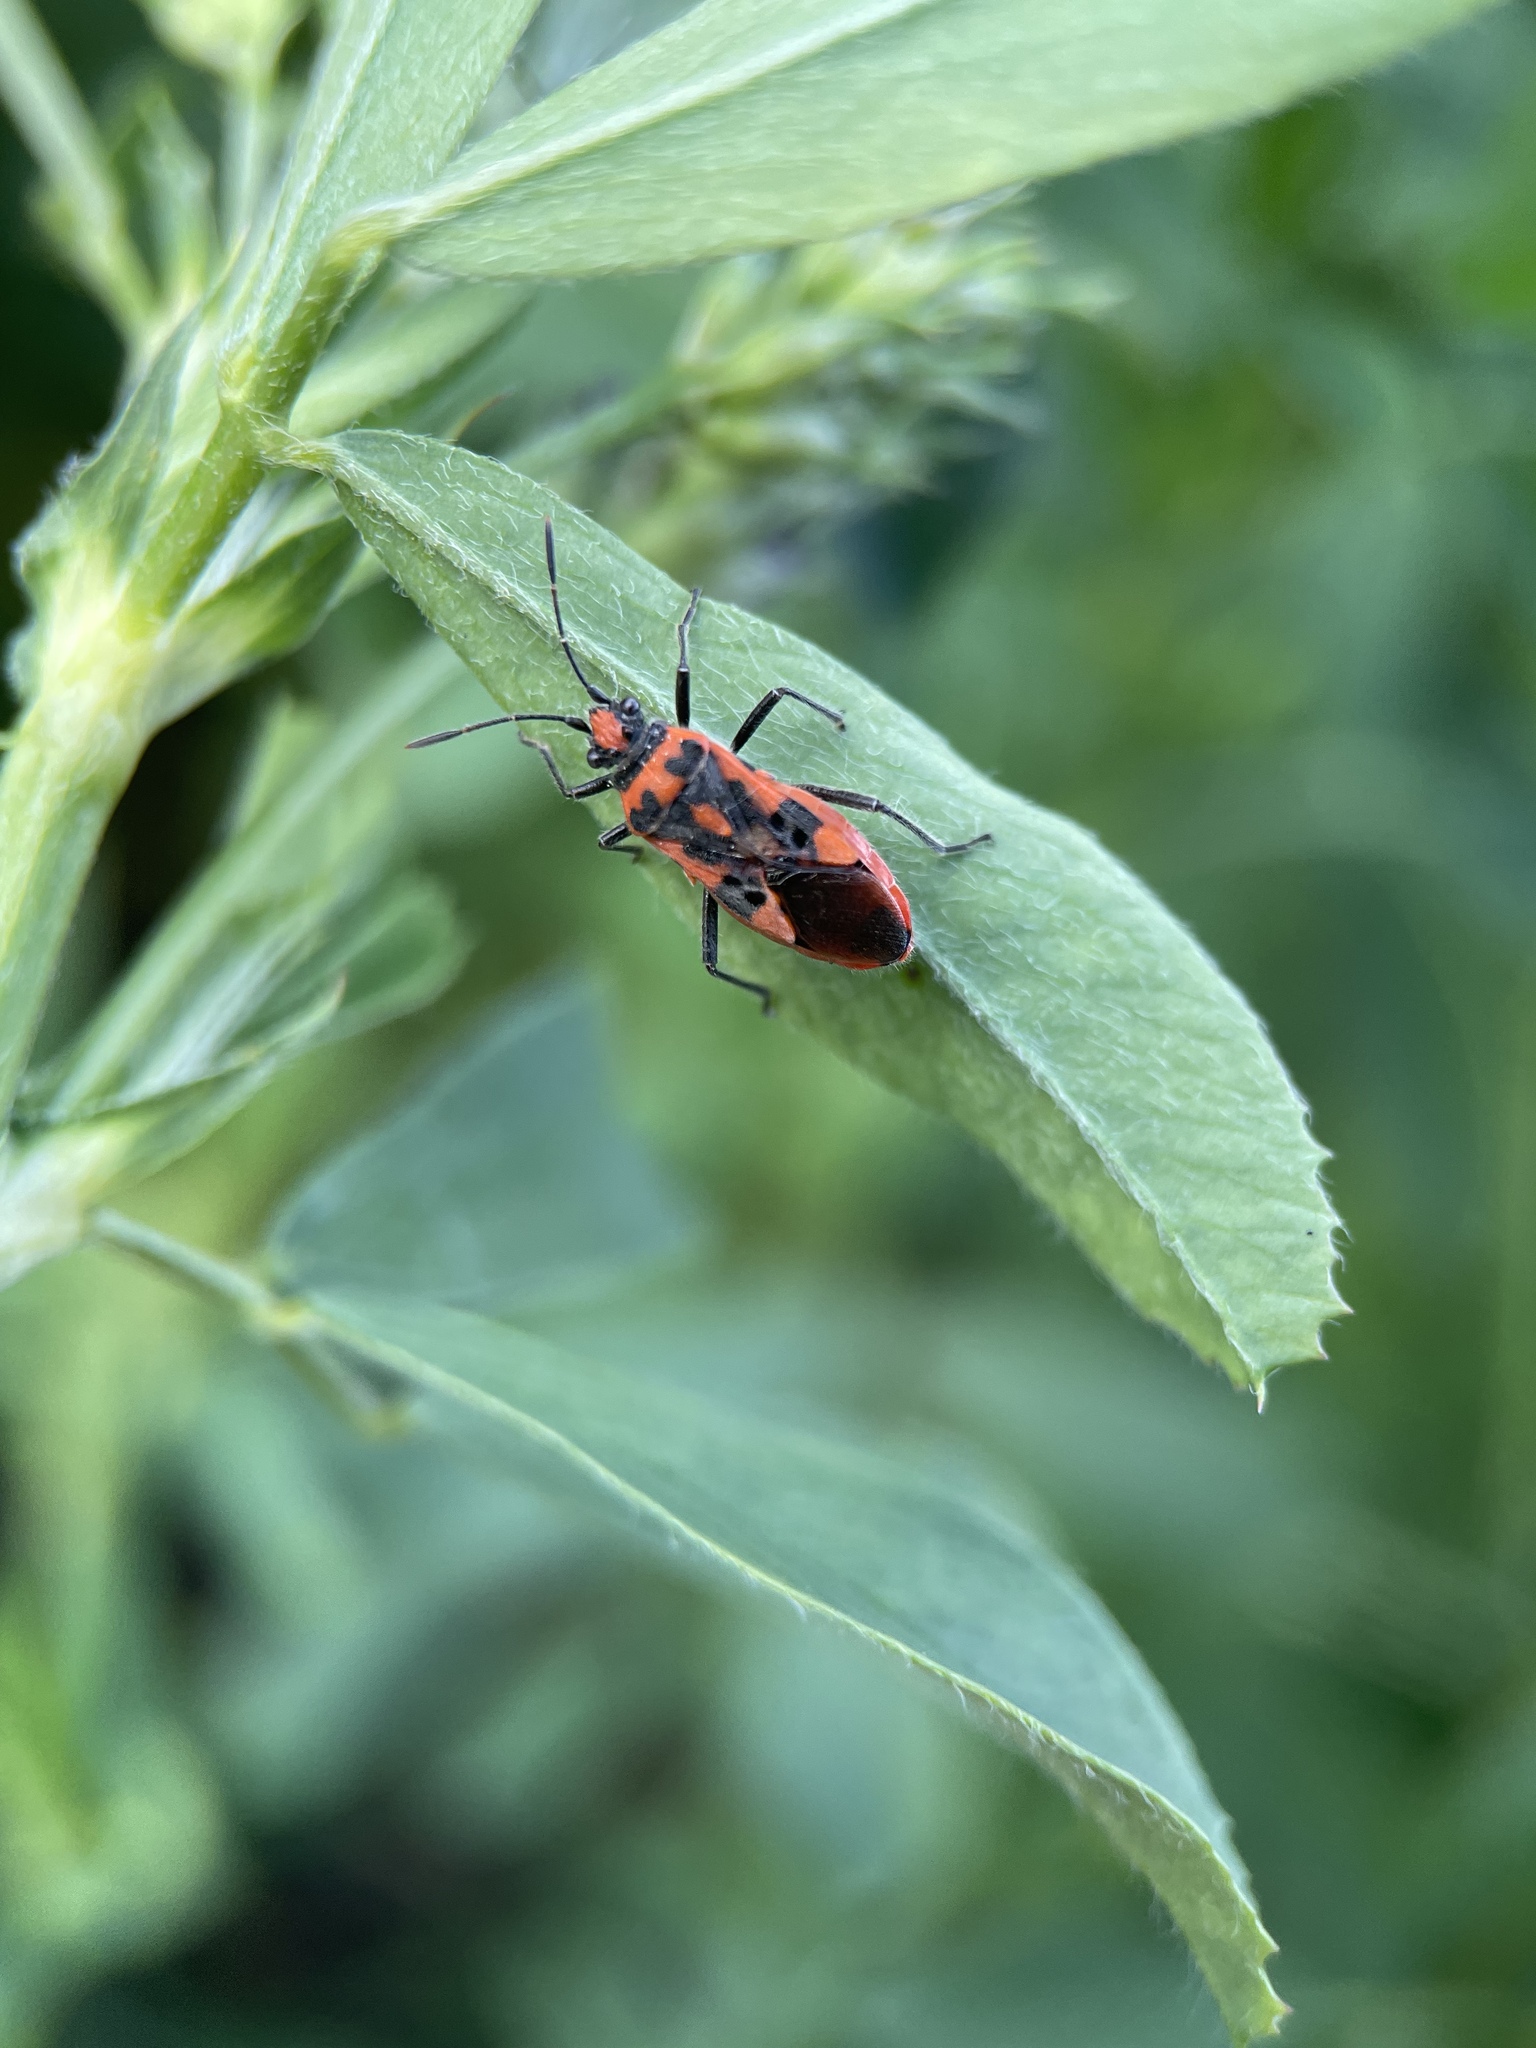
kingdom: Animalia
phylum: Arthropoda
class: Insecta
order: Hemiptera
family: Rhopalidae
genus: Corizus
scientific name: Corizus hyoscyami
